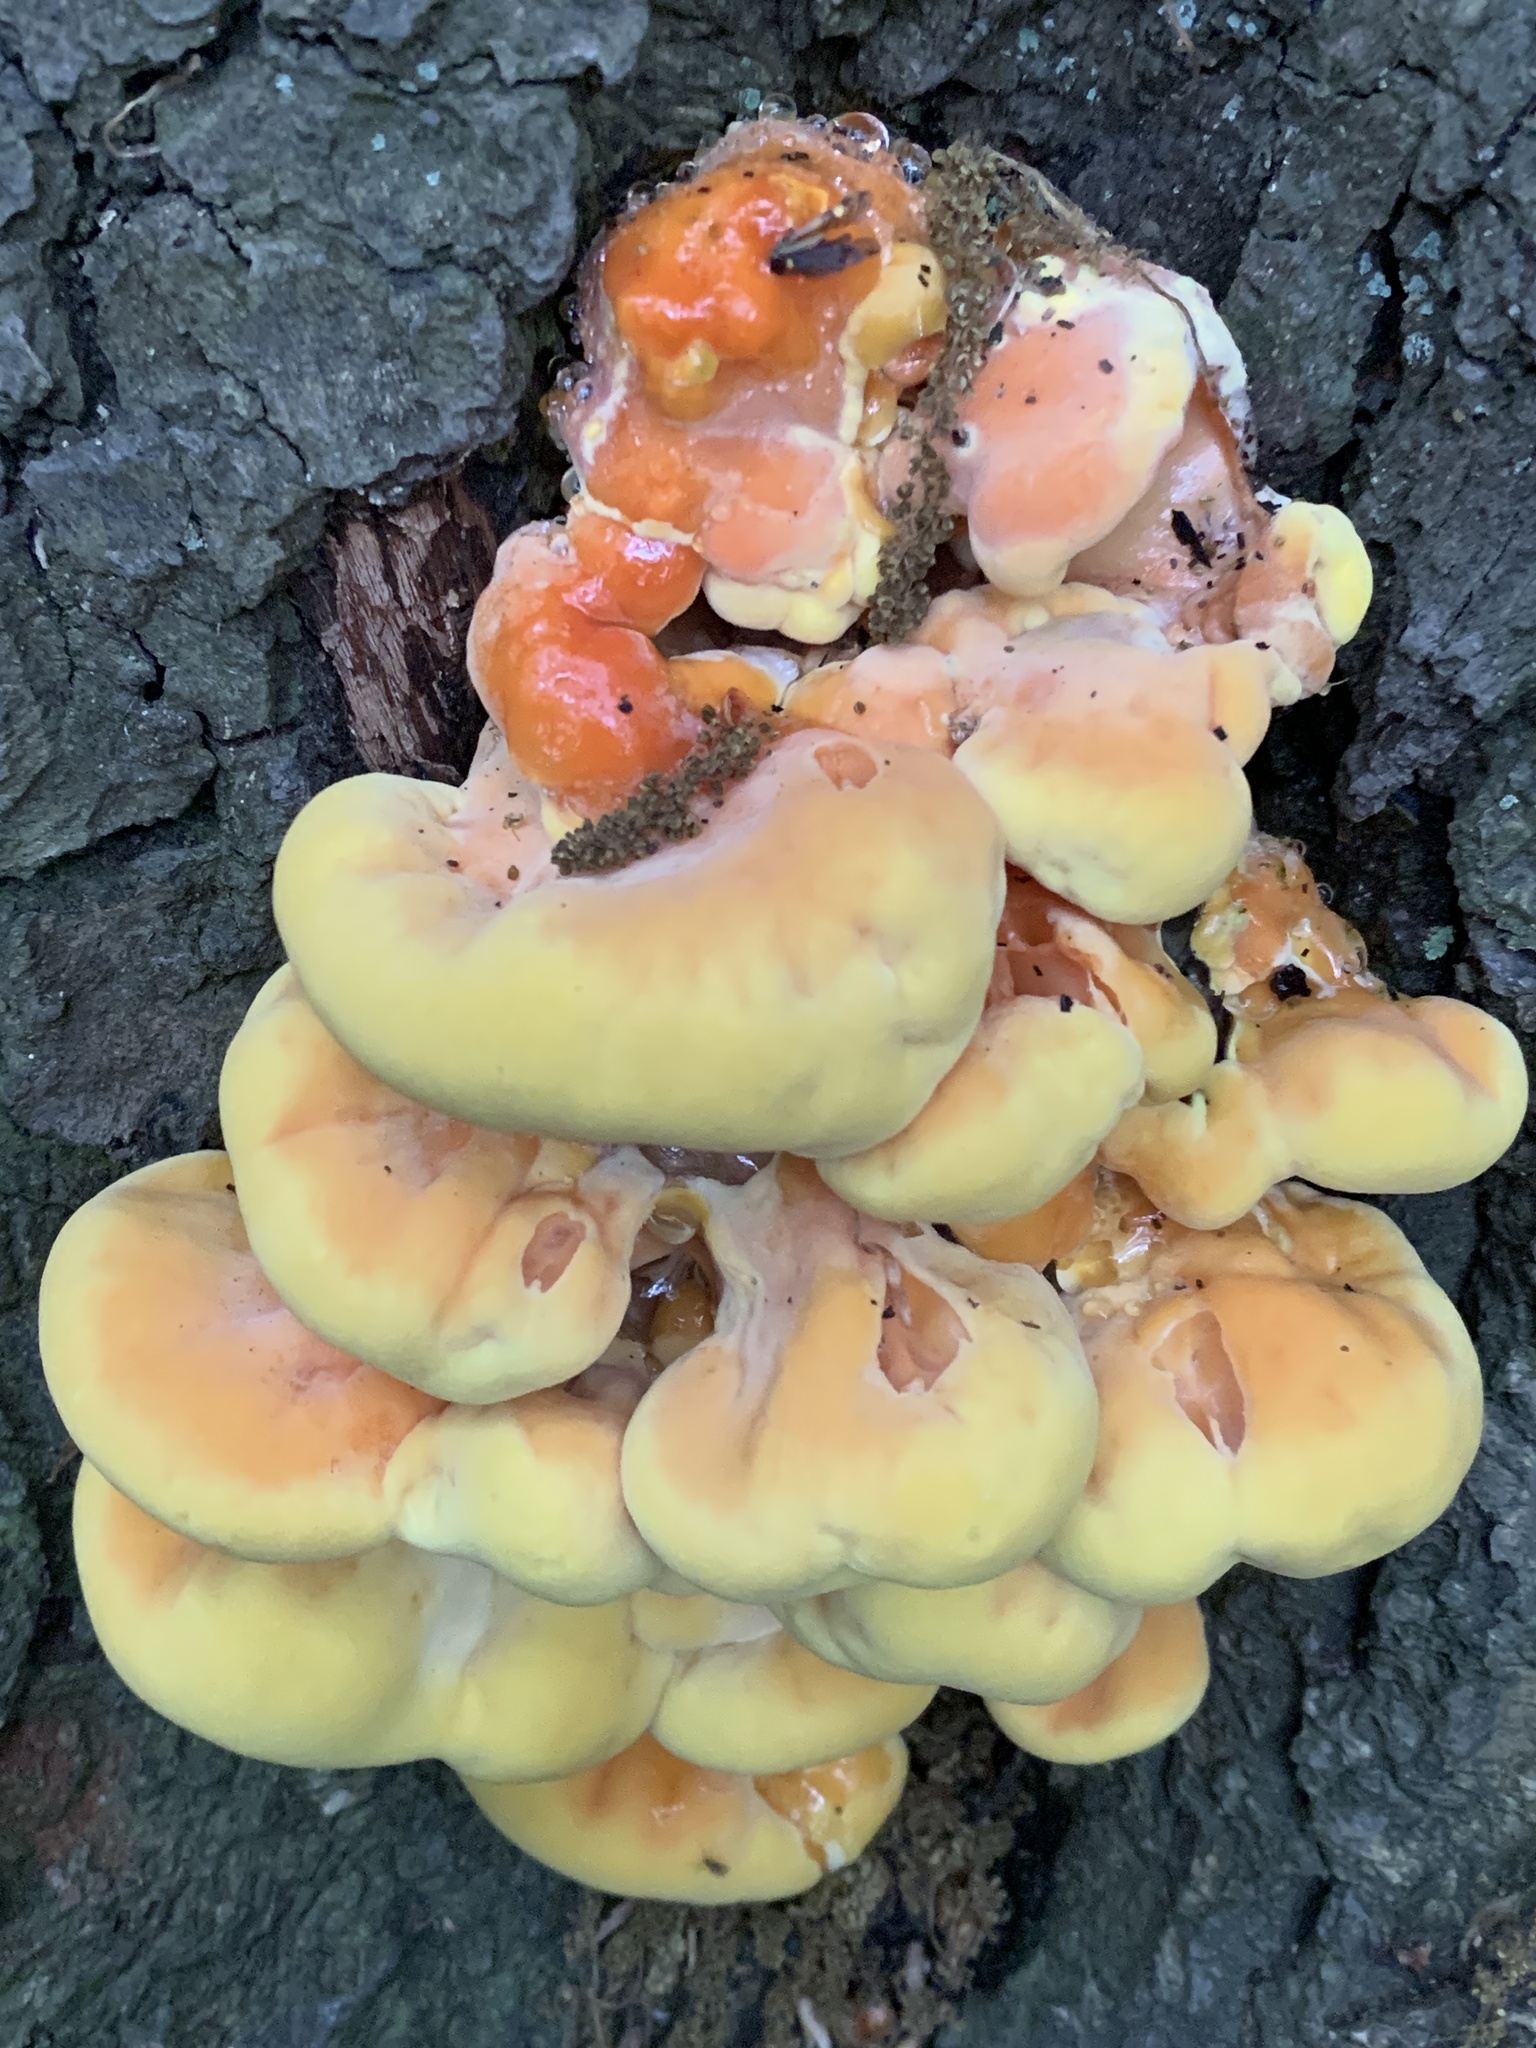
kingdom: Fungi
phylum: Basidiomycota
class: Agaricomycetes
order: Polyporales
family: Laetiporaceae
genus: Laetiporus
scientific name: Laetiporus sulphureus
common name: Chicken of the woods
